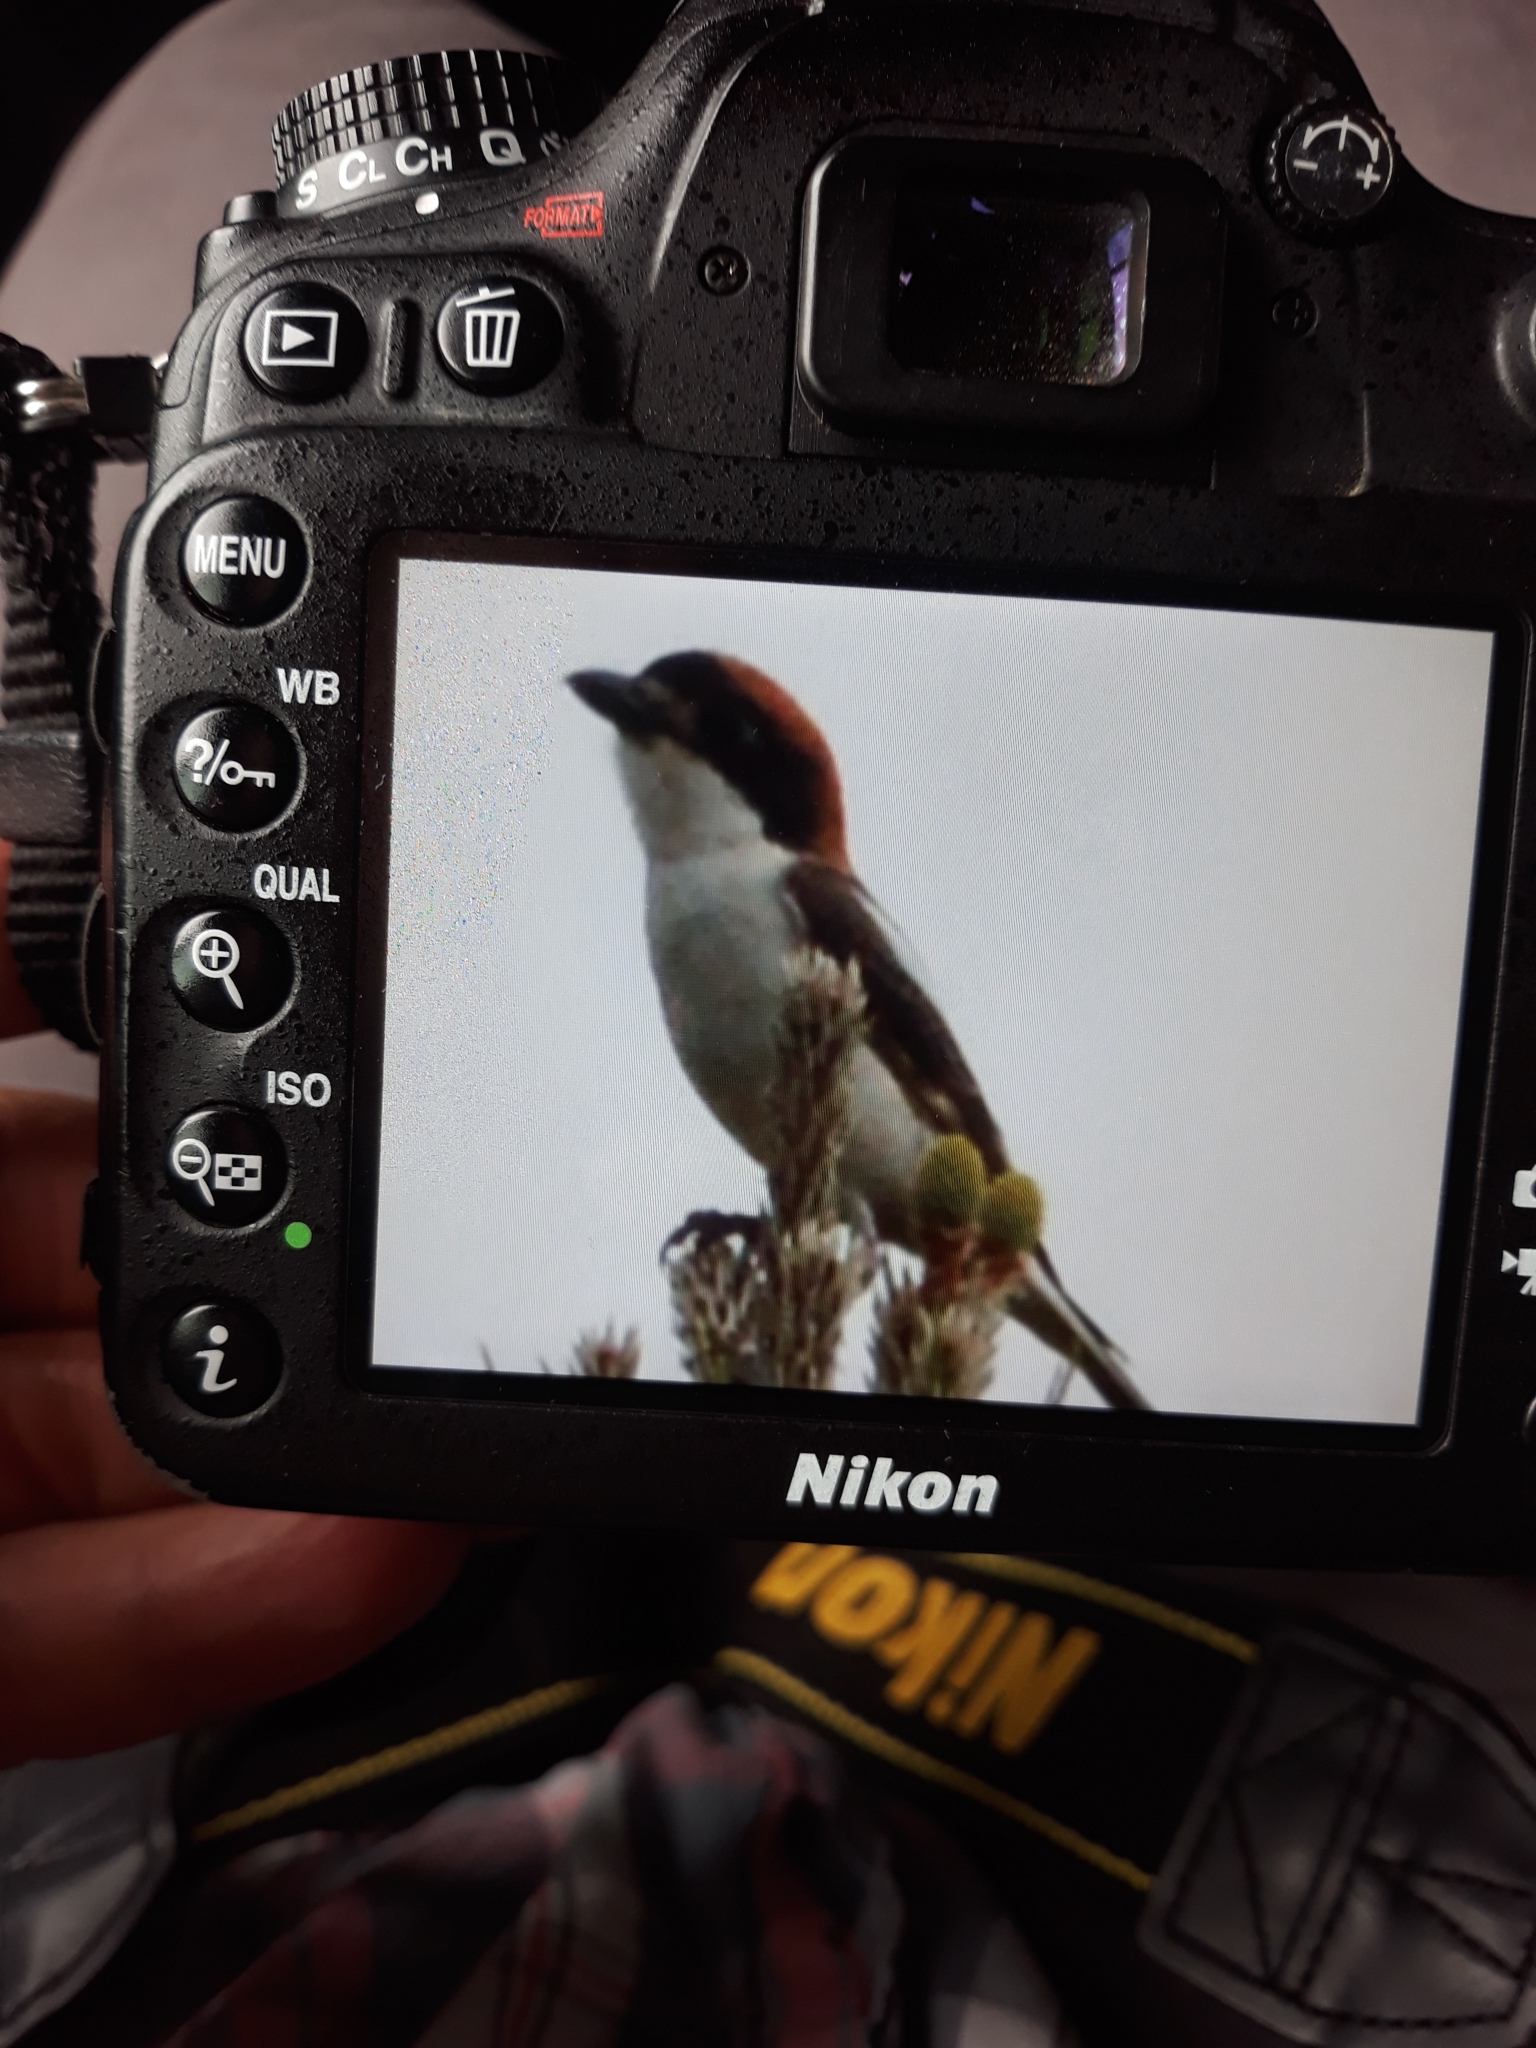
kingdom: Animalia
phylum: Chordata
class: Aves
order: Passeriformes
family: Laniidae
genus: Lanius
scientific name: Lanius senator
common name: Woodchat shrike
